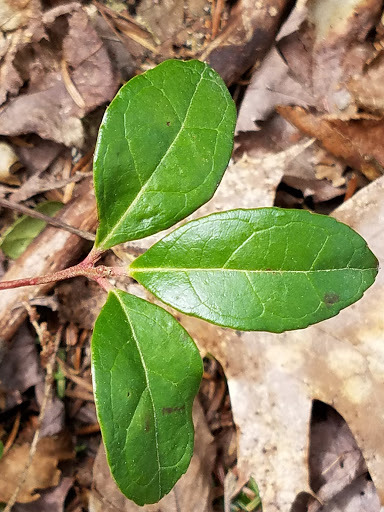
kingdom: Plantae
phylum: Tracheophyta
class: Magnoliopsida
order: Ericales
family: Ericaceae
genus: Gaultheria
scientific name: Gaultheria procumbens
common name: Checkerberry
